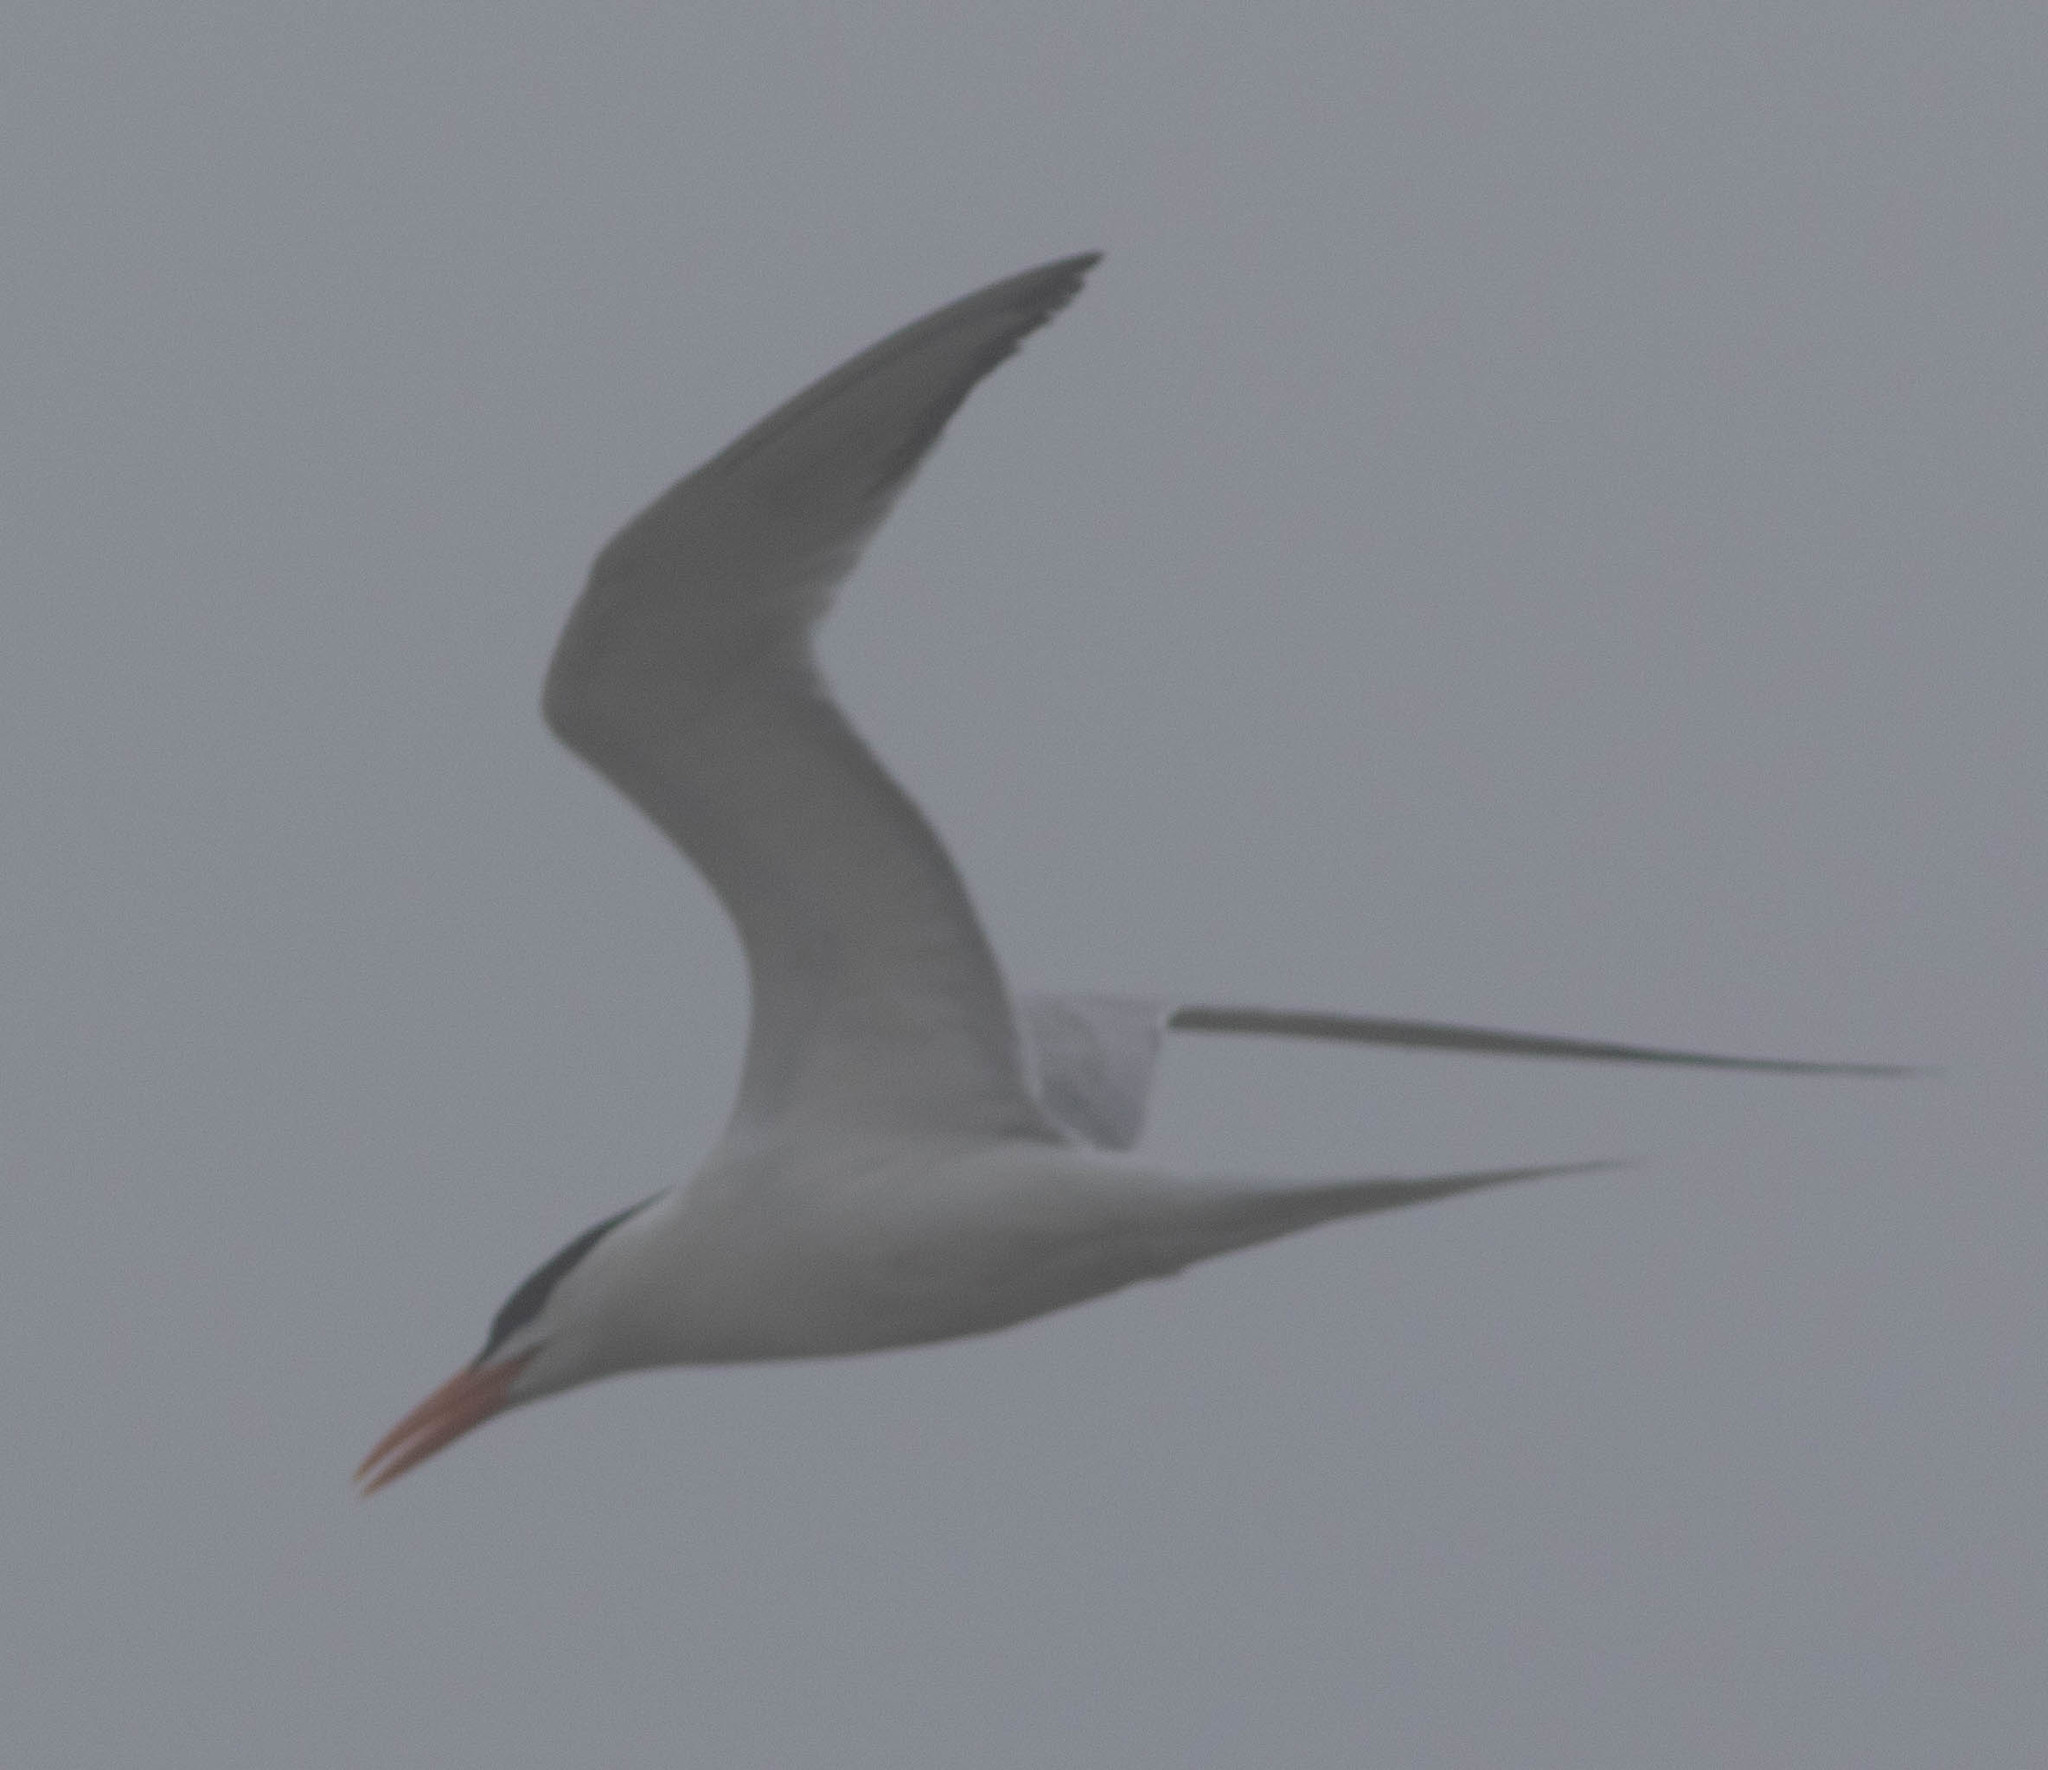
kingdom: Animalia
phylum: Chordata
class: Aves
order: Charadriiformes
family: Laridae
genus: Thalasseus
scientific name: Thalasseus maximus
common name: Royal tern
